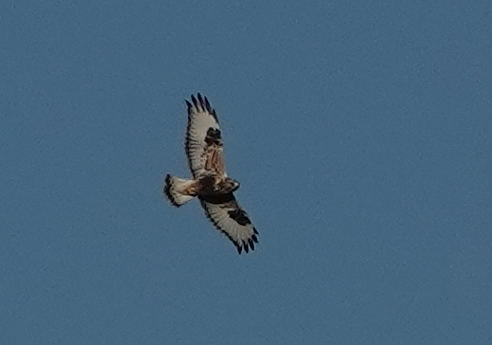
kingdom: Animalia
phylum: Chordata
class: Aves
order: Accipitriformes
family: Accipitridae
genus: Buteo
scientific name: Buteo lagopus
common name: Rough-legged buzzard
